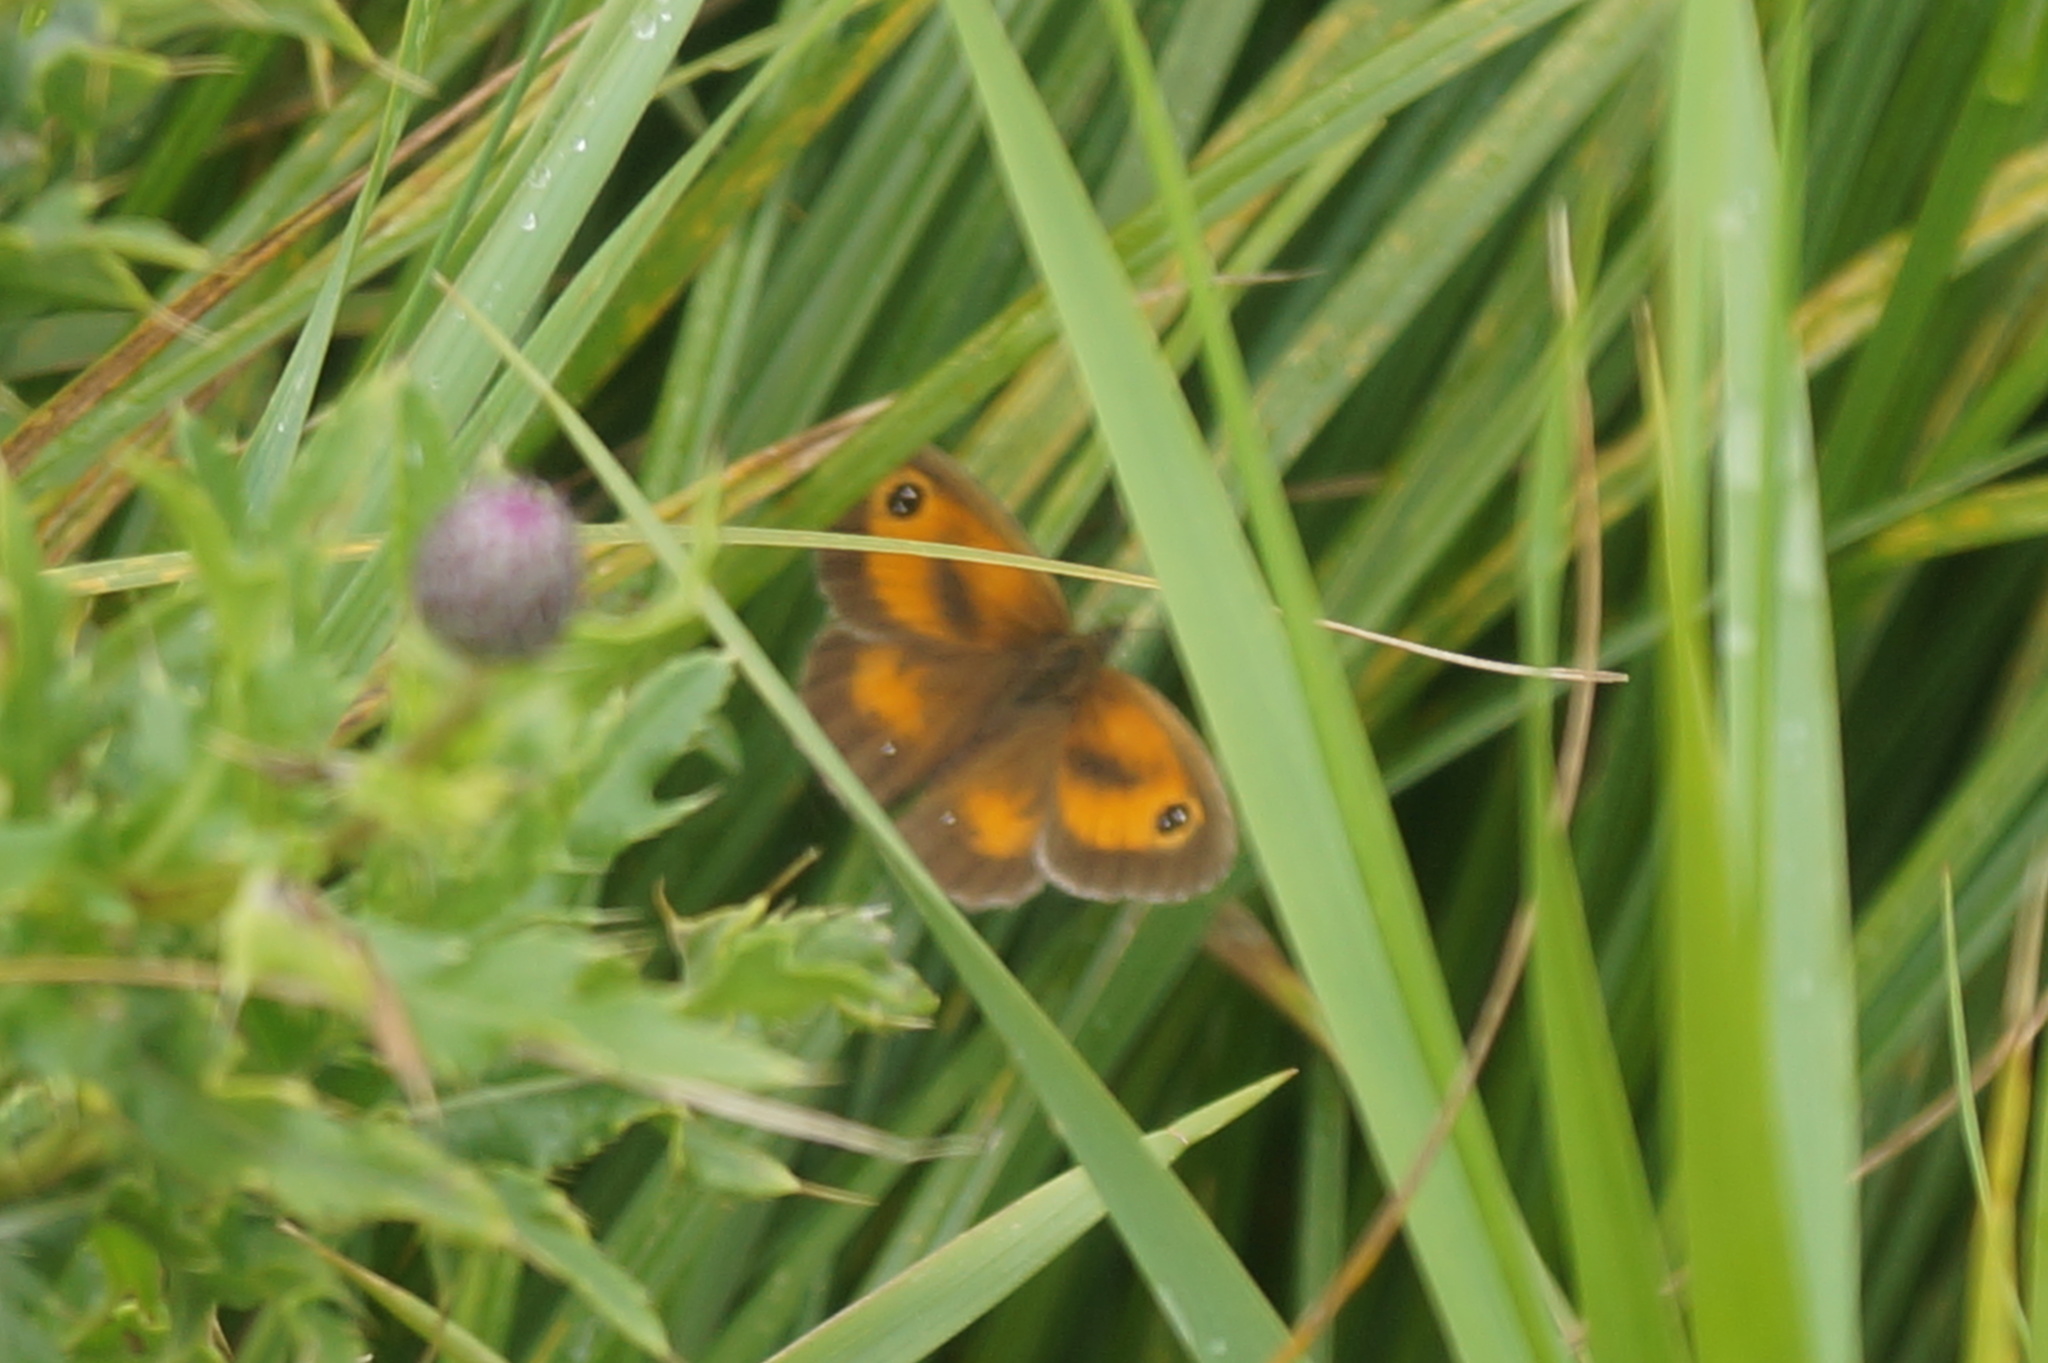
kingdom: Animalia
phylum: Arthropoda
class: Insecta
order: Lepidoptera
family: Nymphalidae
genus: Pyronia
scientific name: Pyronia tithonus
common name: Gatekeeper
